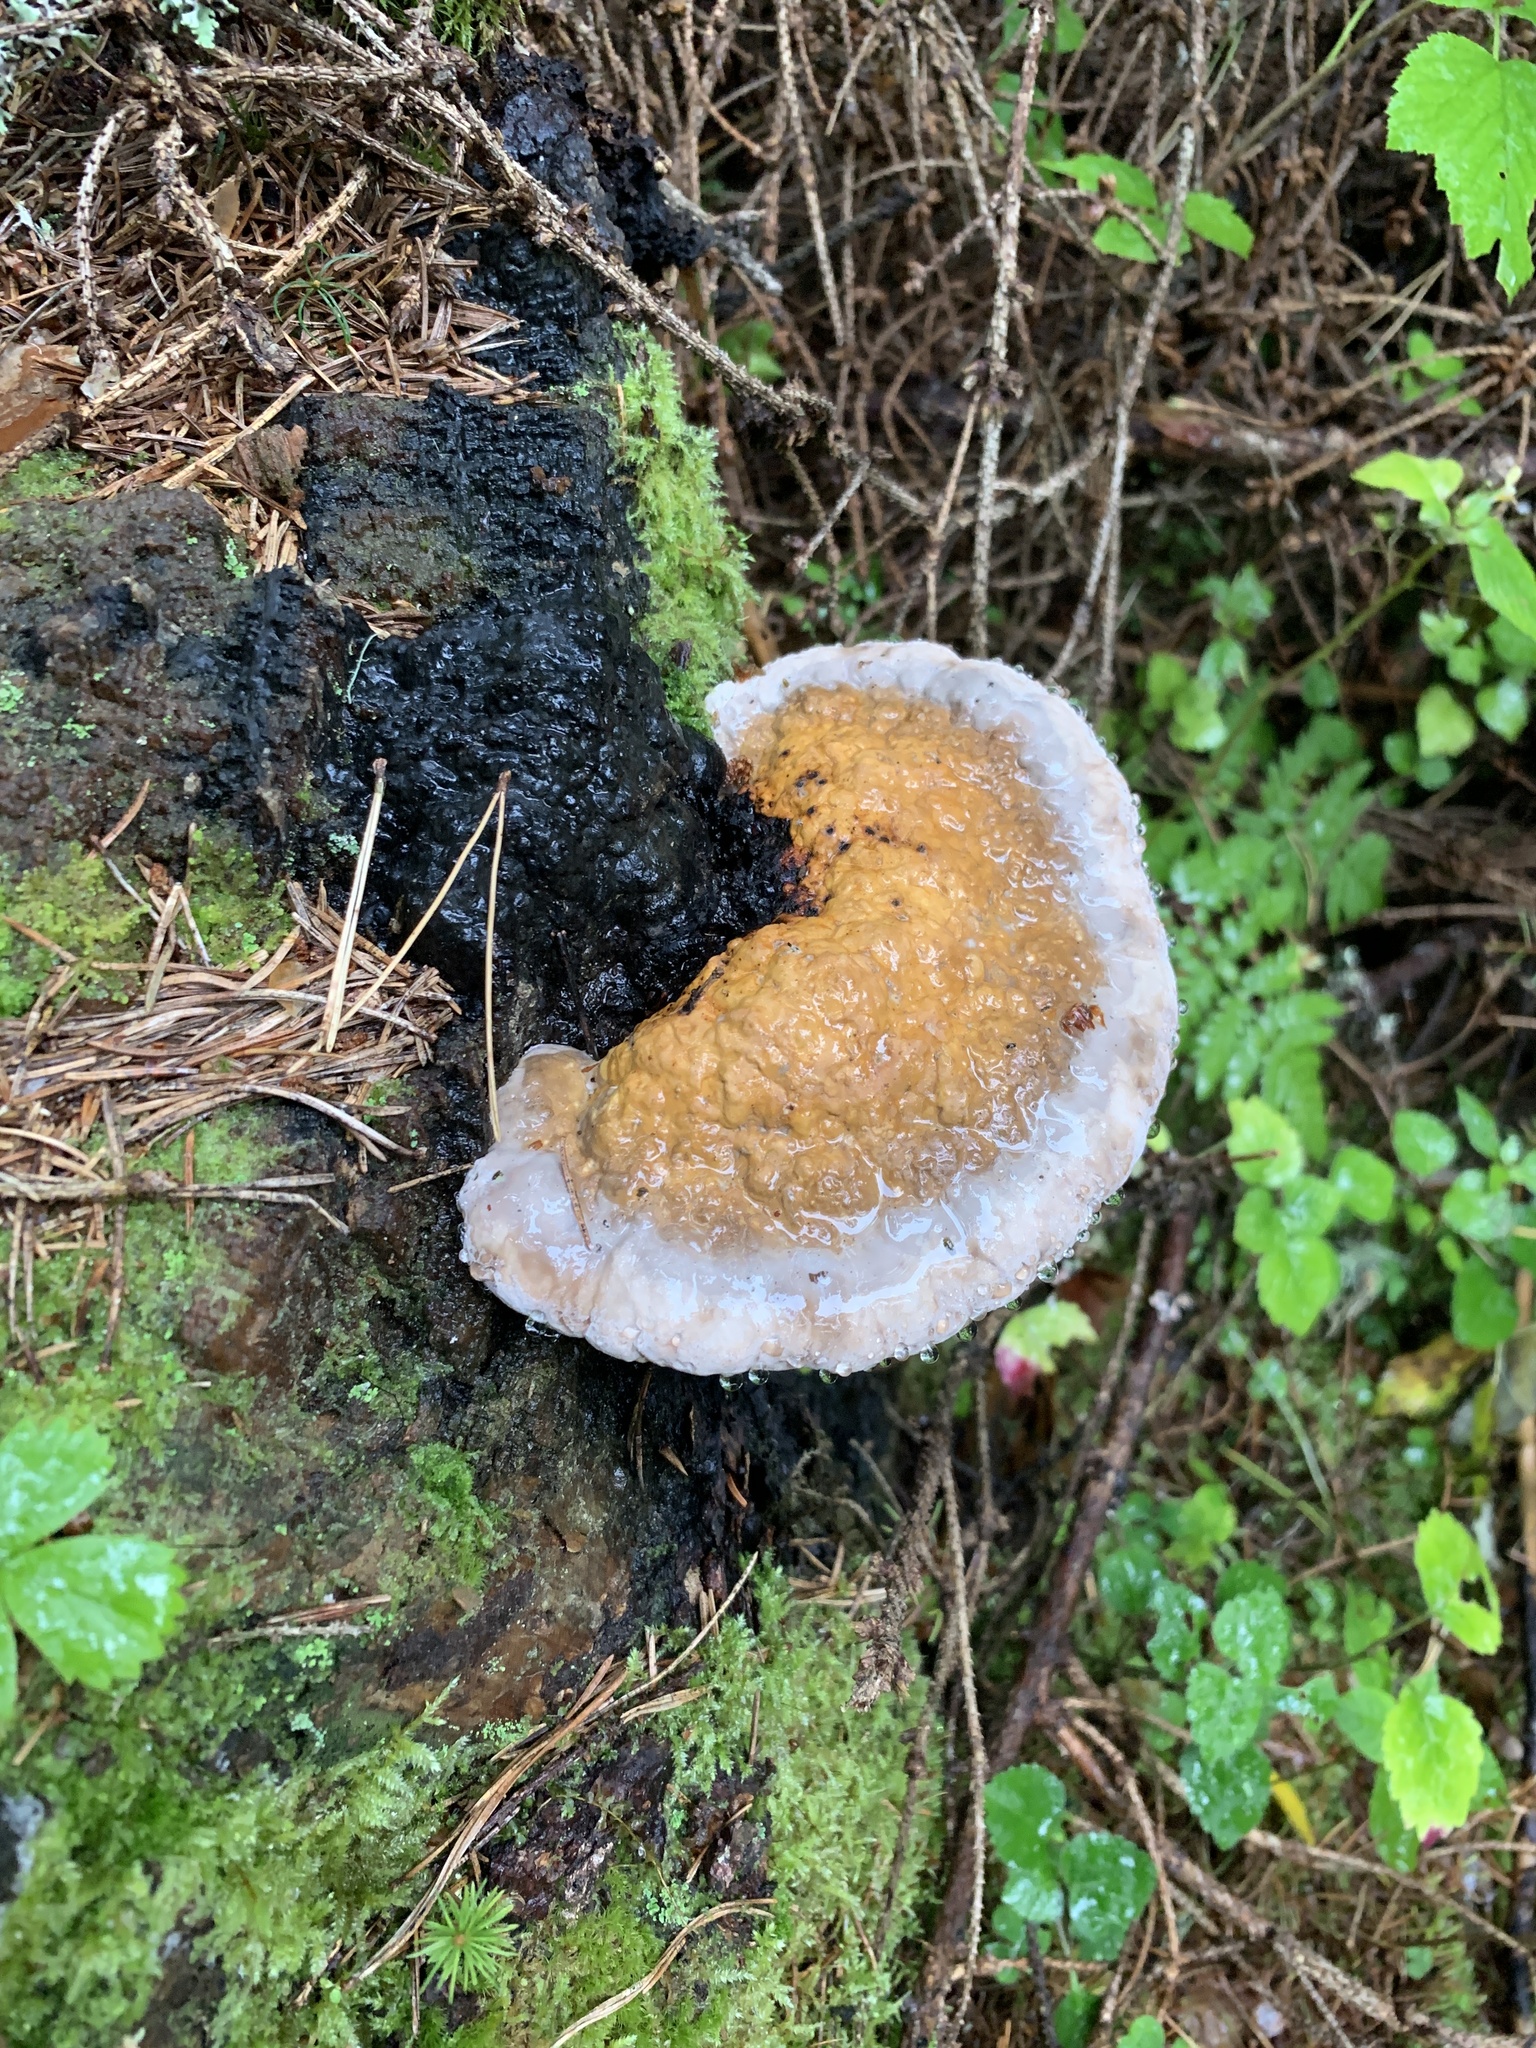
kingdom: Fungi
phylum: Basidiomycota
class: Agaricomycetes
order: Polyporales
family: Fomitopsidaceae
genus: Fomitopsis
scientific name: Fomitopsis pinicola
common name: Red-belted bracket
